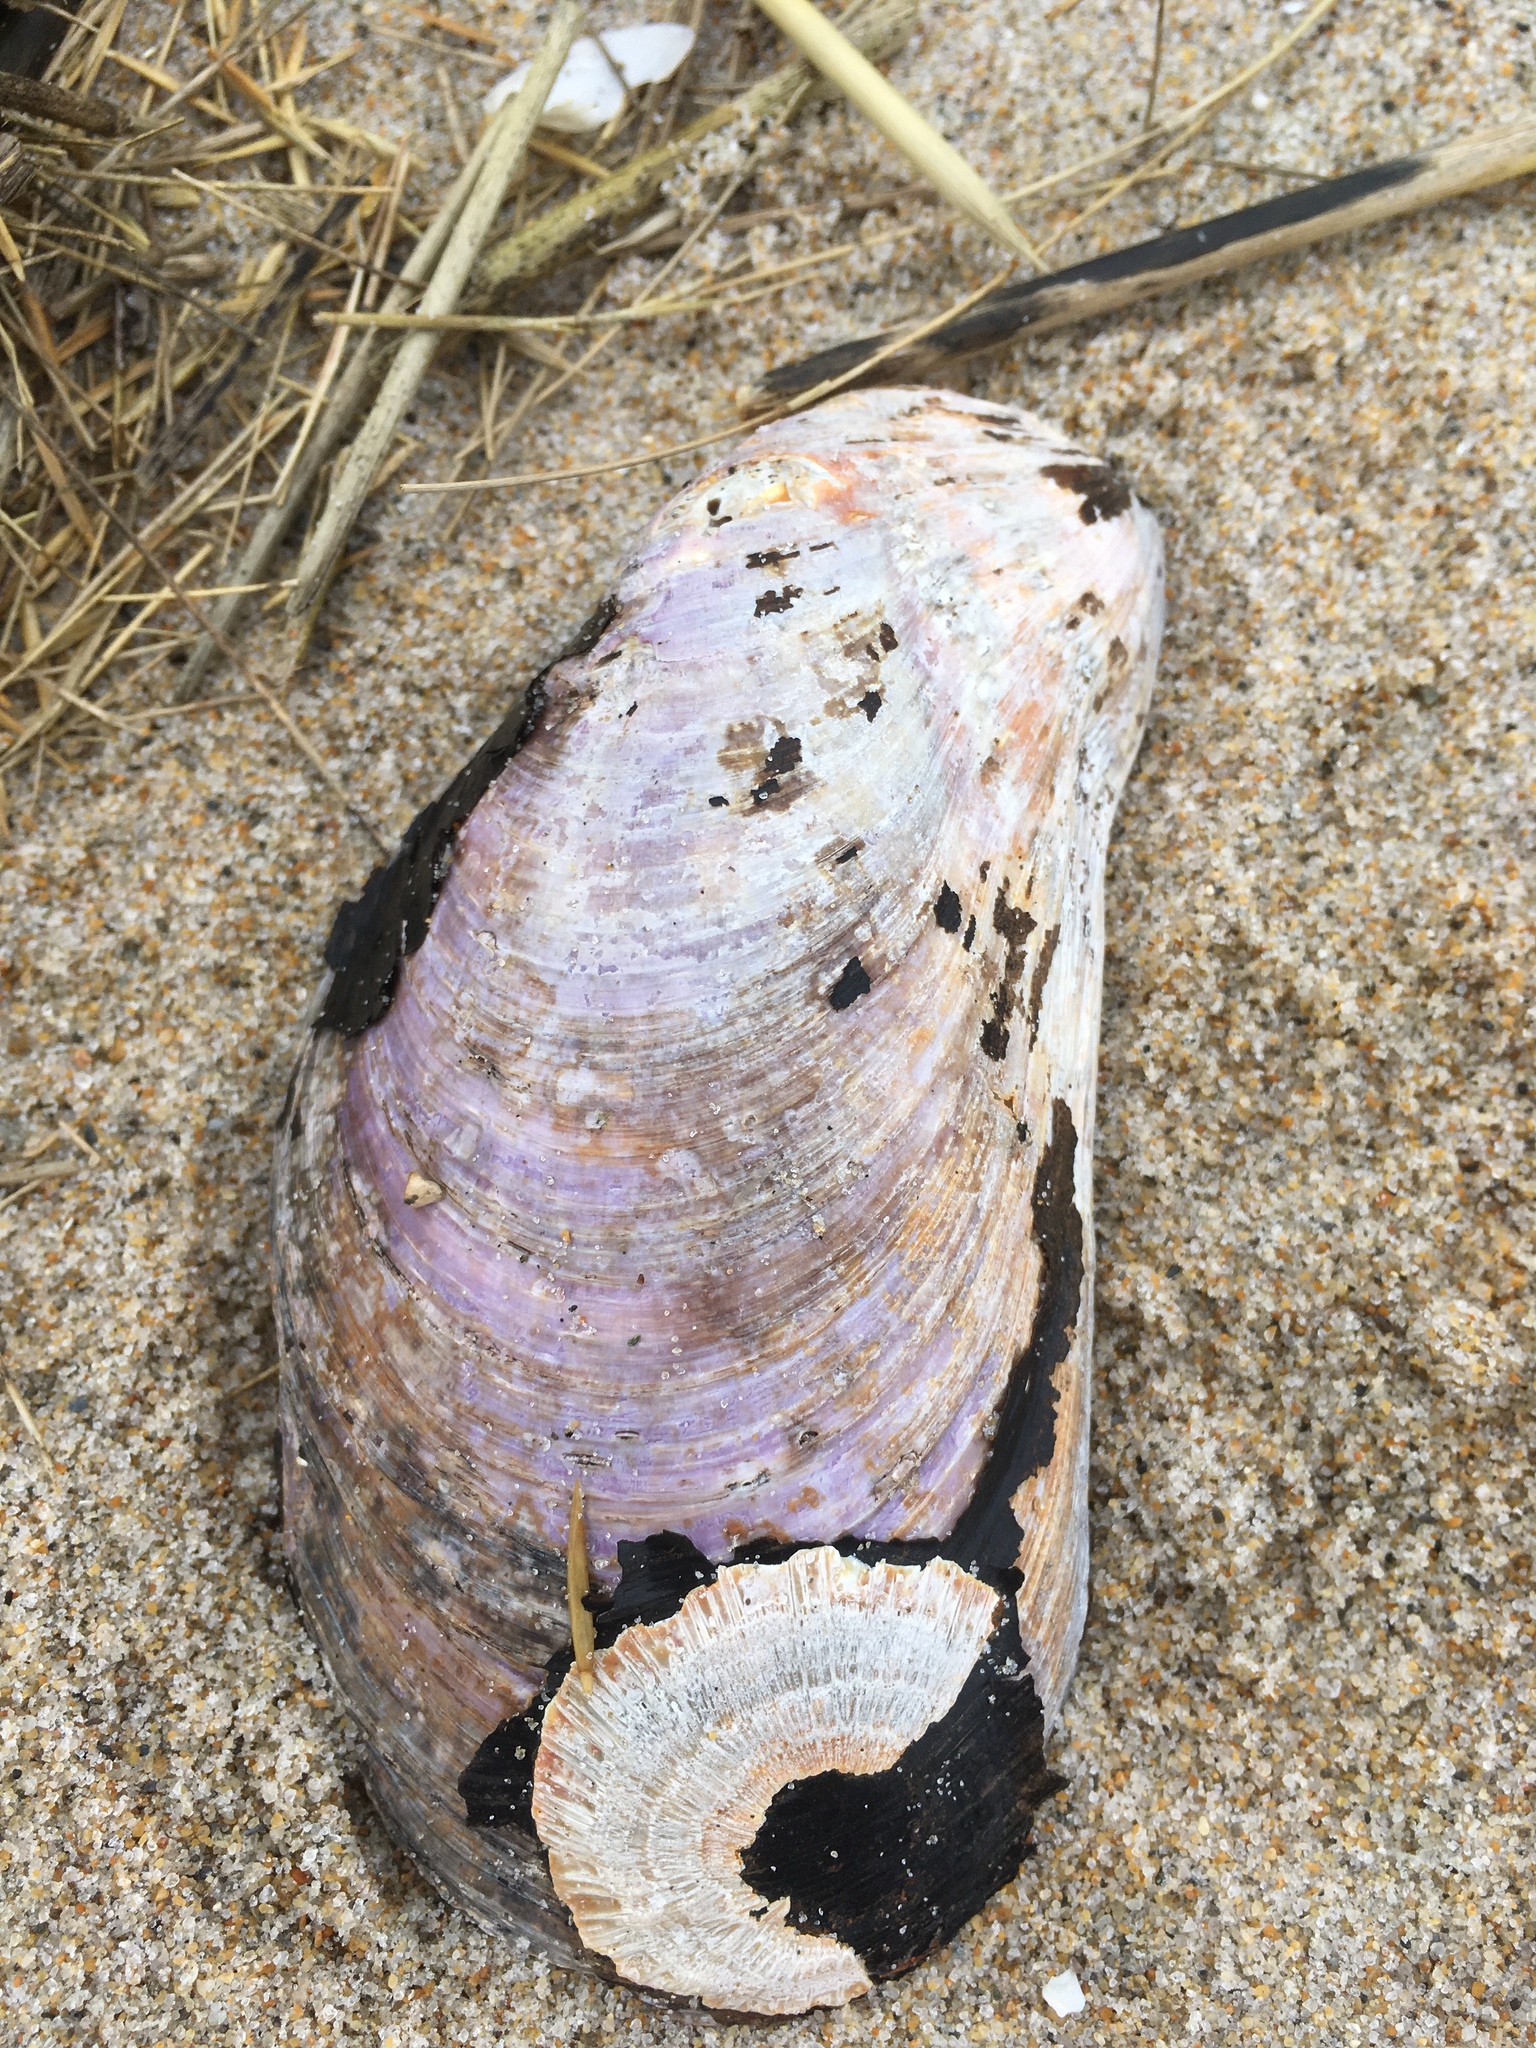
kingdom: Animalia
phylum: Mollusca
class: Bivalvia
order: Mytilida
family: Mytilidae
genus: Modiolus
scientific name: Modiolus modiolus
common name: Horse-mussel
